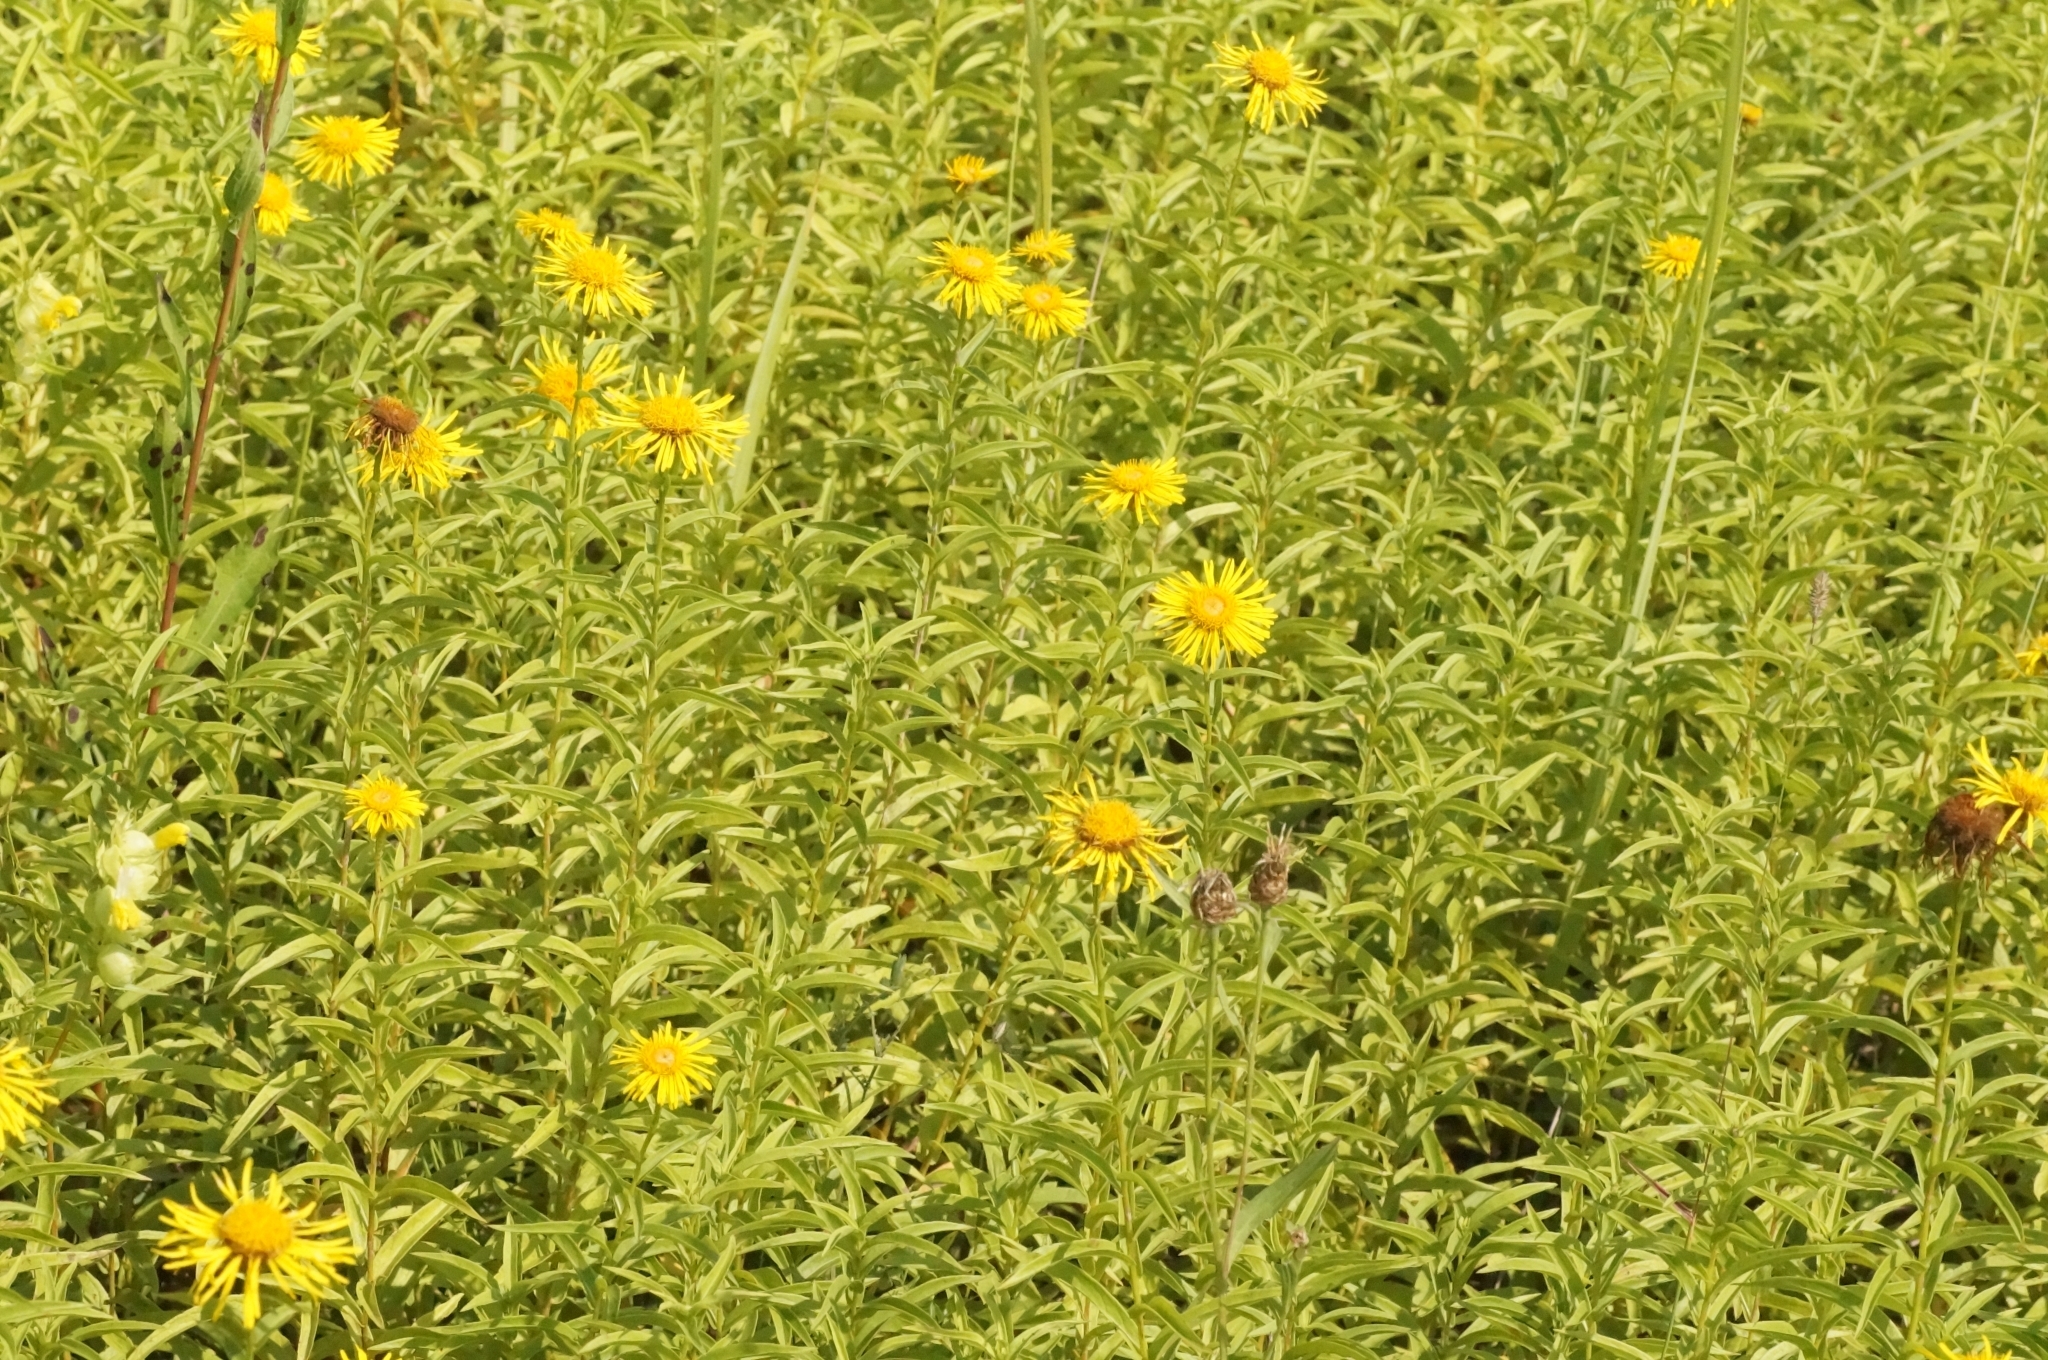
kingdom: Plantae
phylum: Tracheophyta
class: Magnoliopsida
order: Asterales
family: Asteraceae
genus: Pentanema
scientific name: Pentanema salicinum
